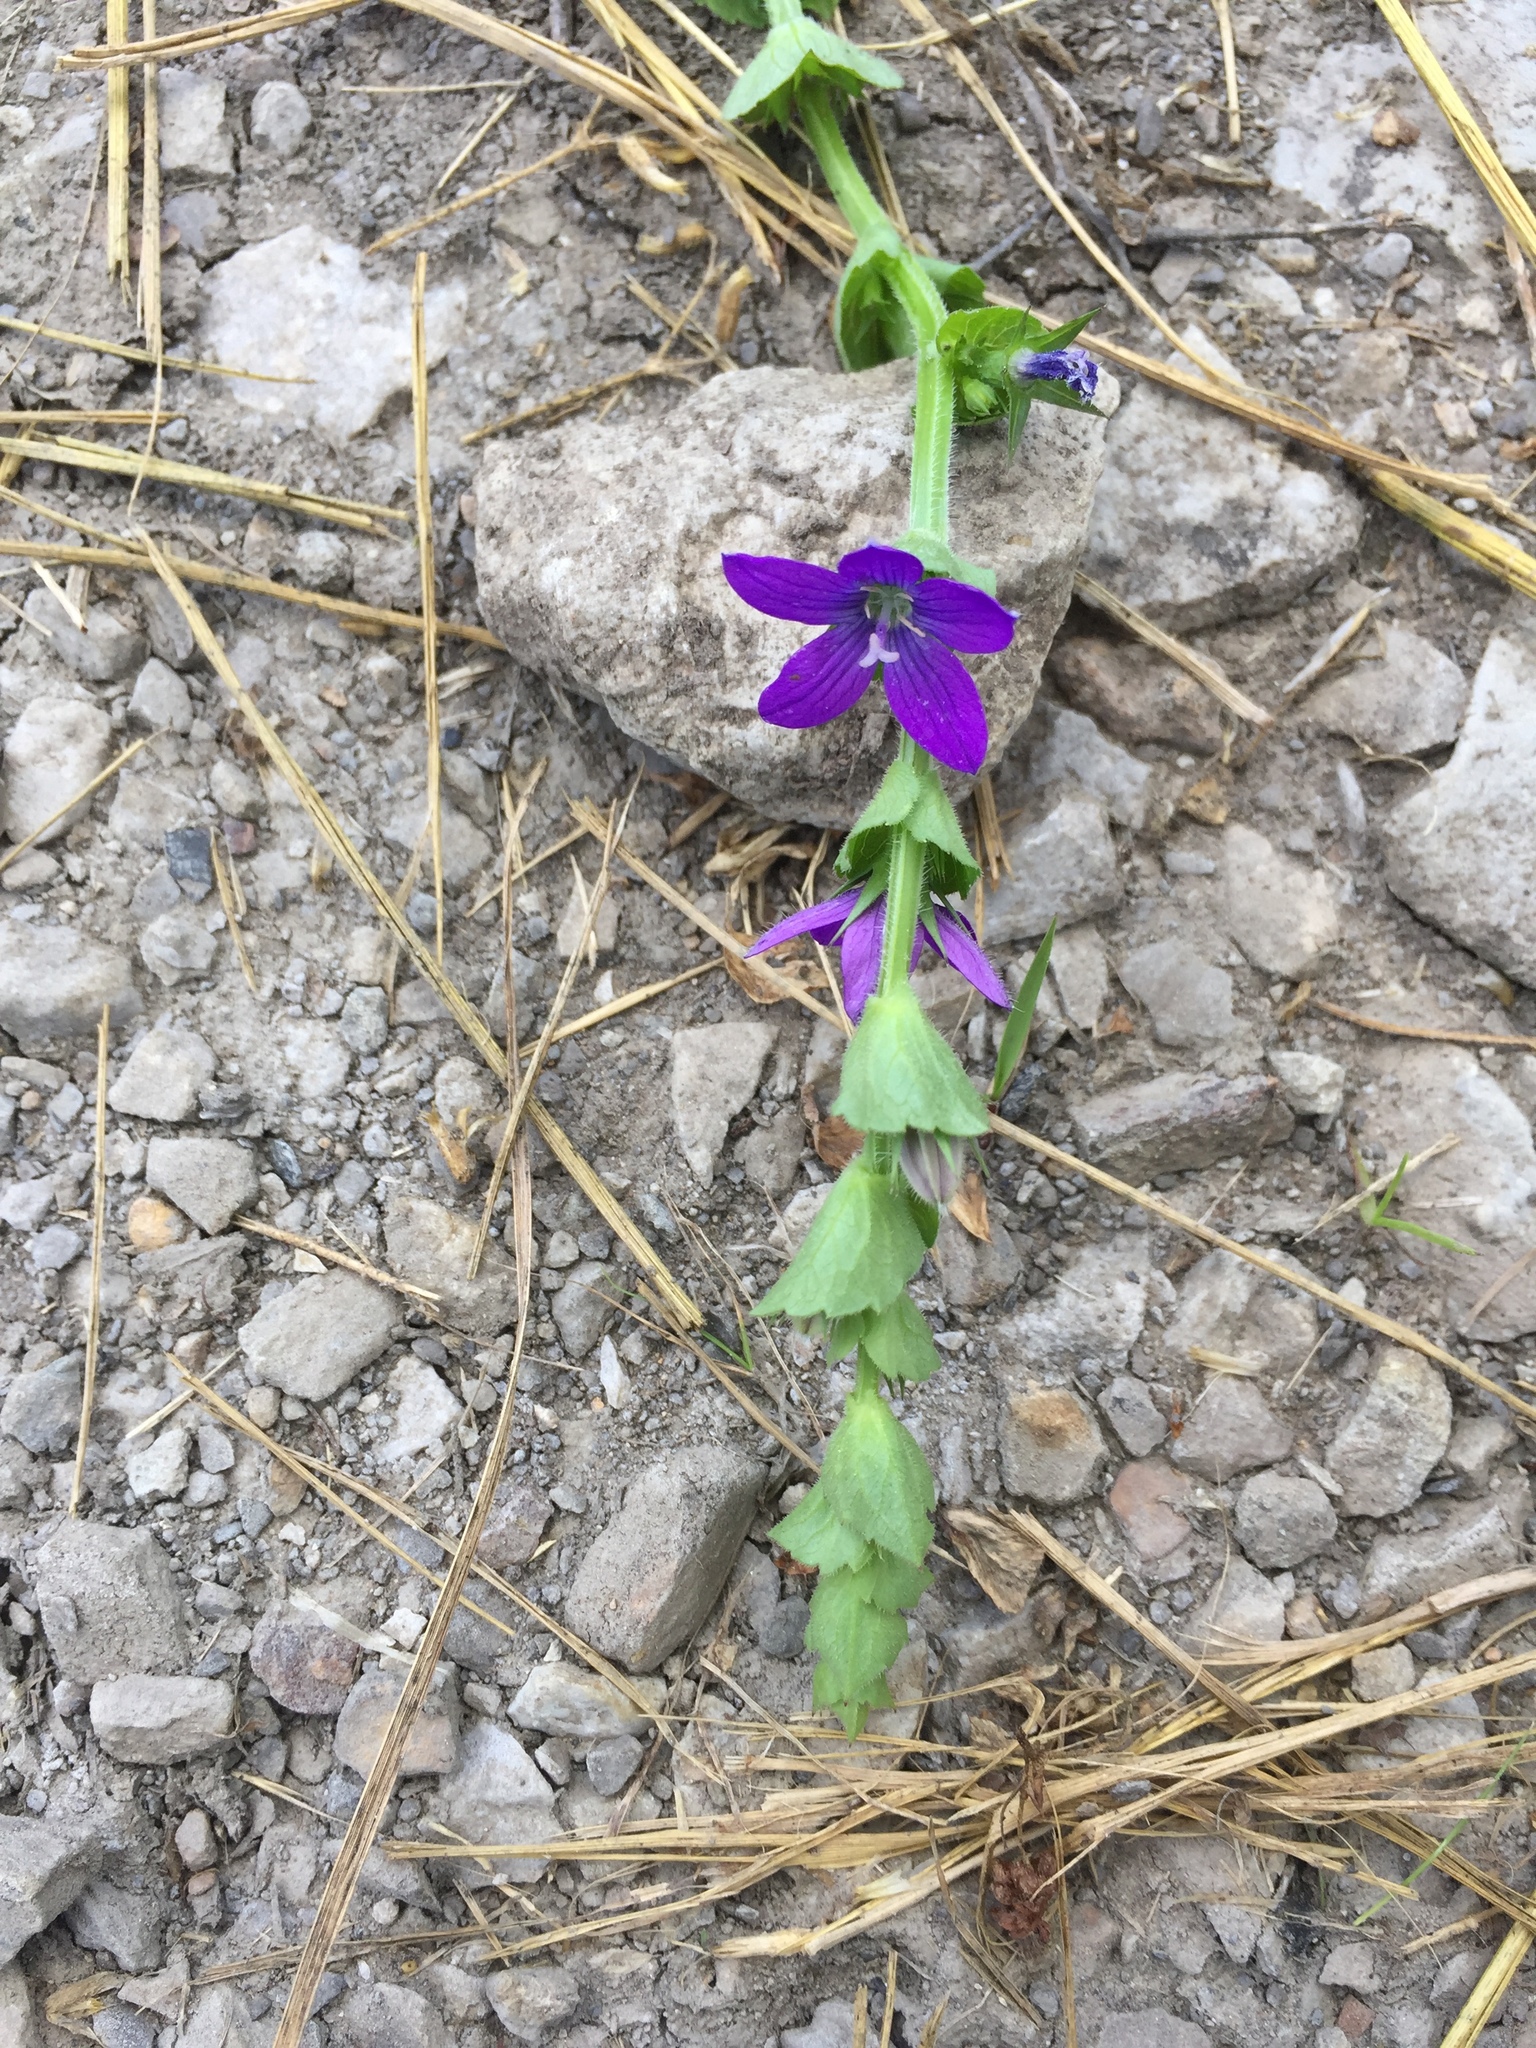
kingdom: Plantae
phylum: Tracheophyta
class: Magnoliopsida
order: Asterales
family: Campanulaceae
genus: Triodanis
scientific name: Triodanis perfoliata
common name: Clasping venus' looking-glass
